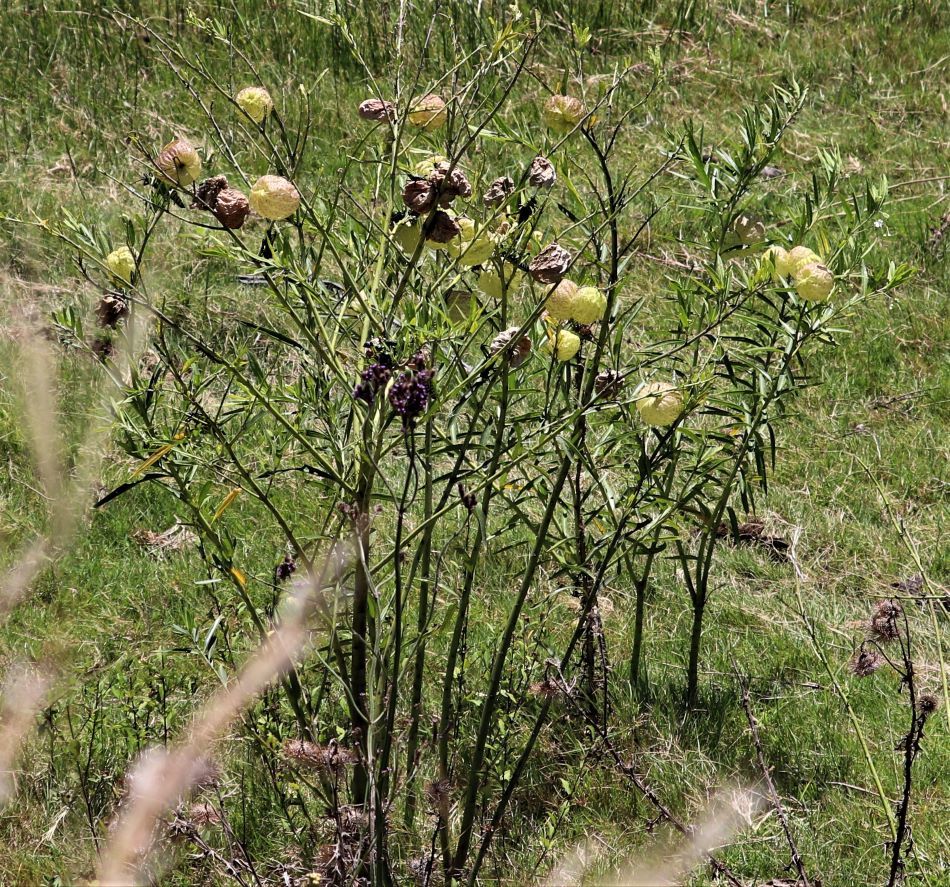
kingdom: Plantae
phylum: Tracheophyta
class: Magnoliopsida
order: Gentianales
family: Apocynaceae
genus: Gomphocarpus
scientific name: Gomphocarpus physocarpus
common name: Balloon cotton bush
